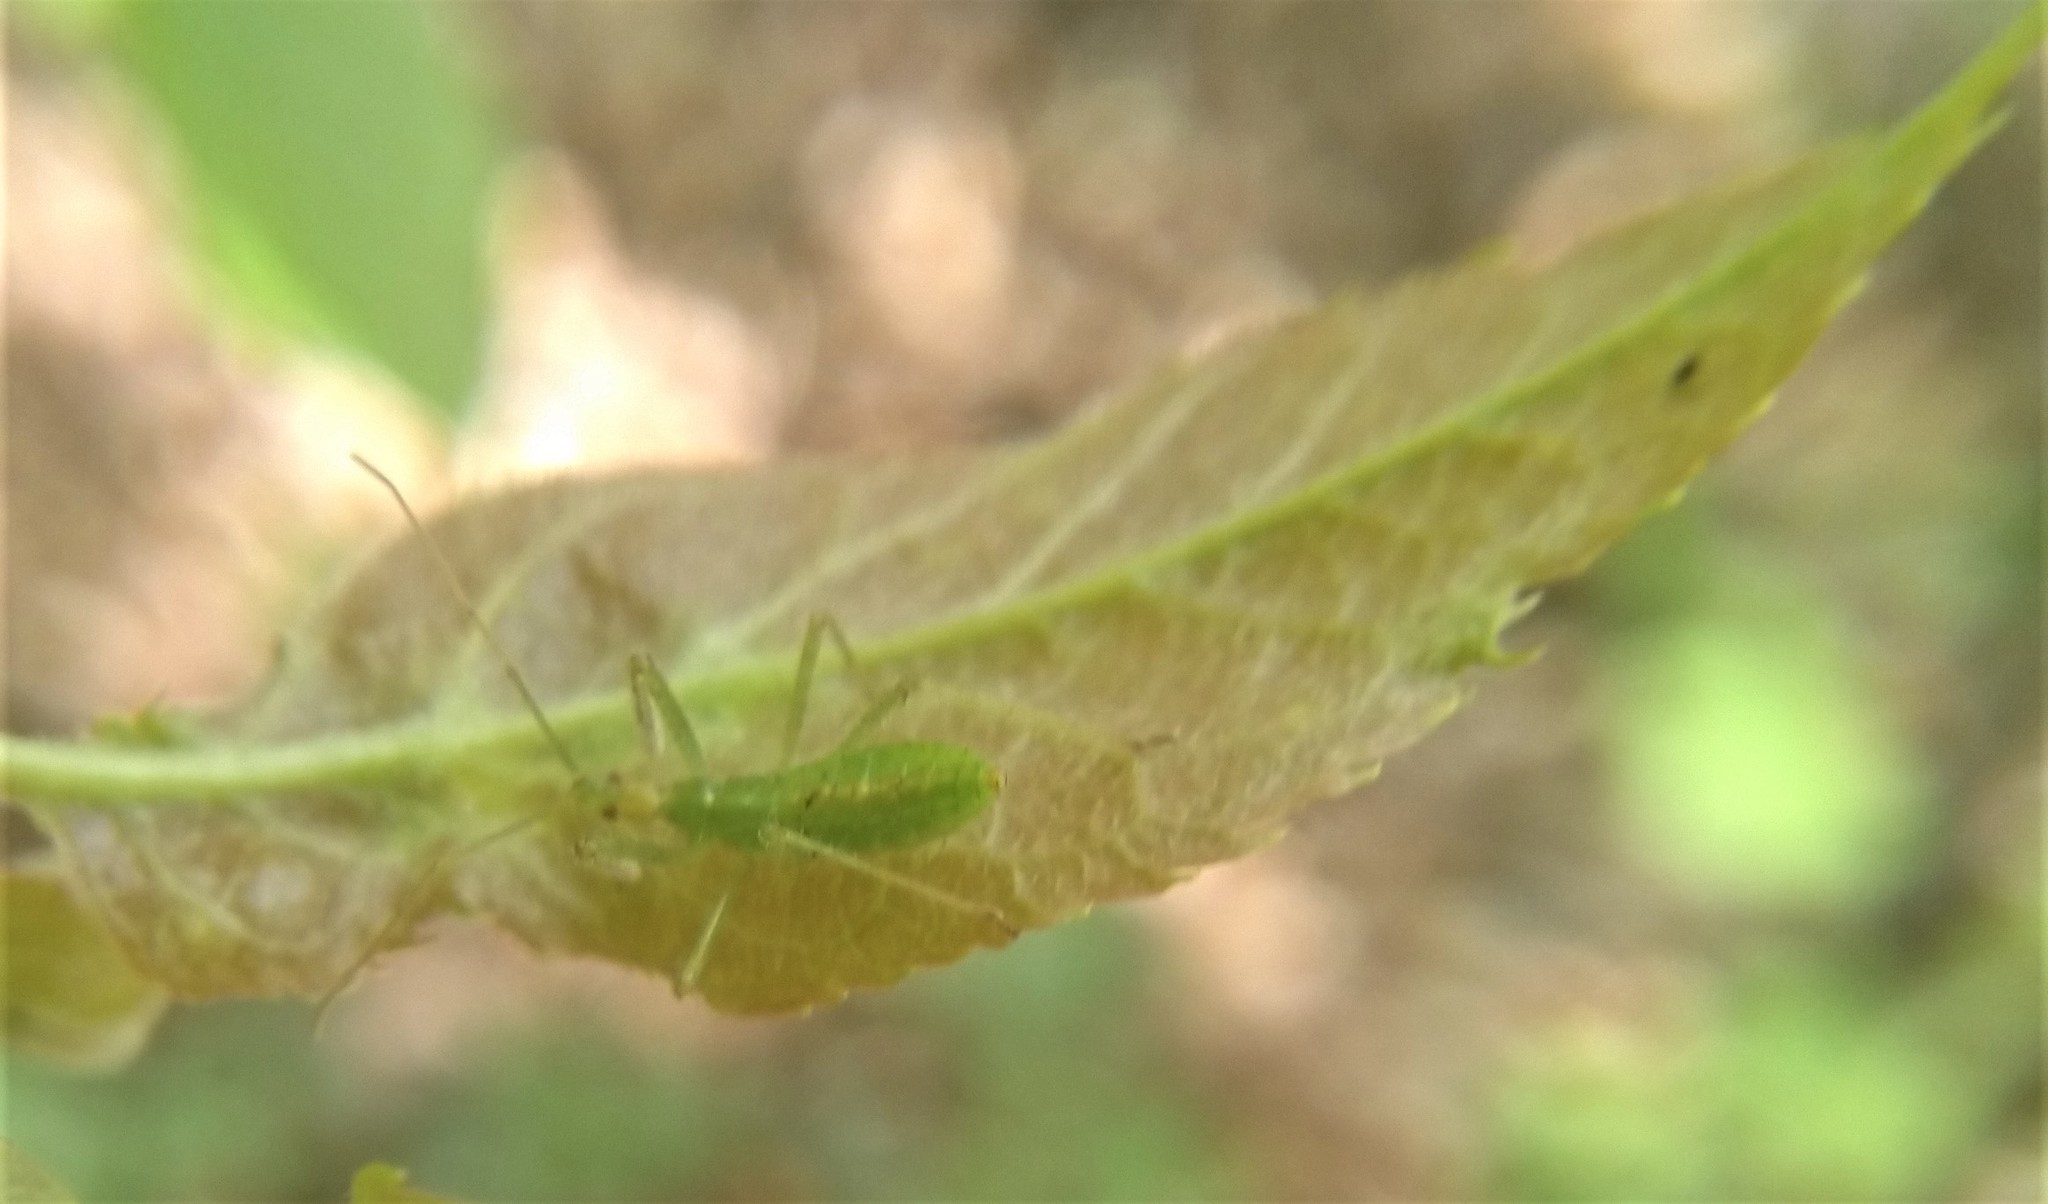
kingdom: Animalia
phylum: Arthropoda
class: Insecta
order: Hemiptera
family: Reduviidae
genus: Zelus
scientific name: Zelus luridus
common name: Pale green assassin bug
